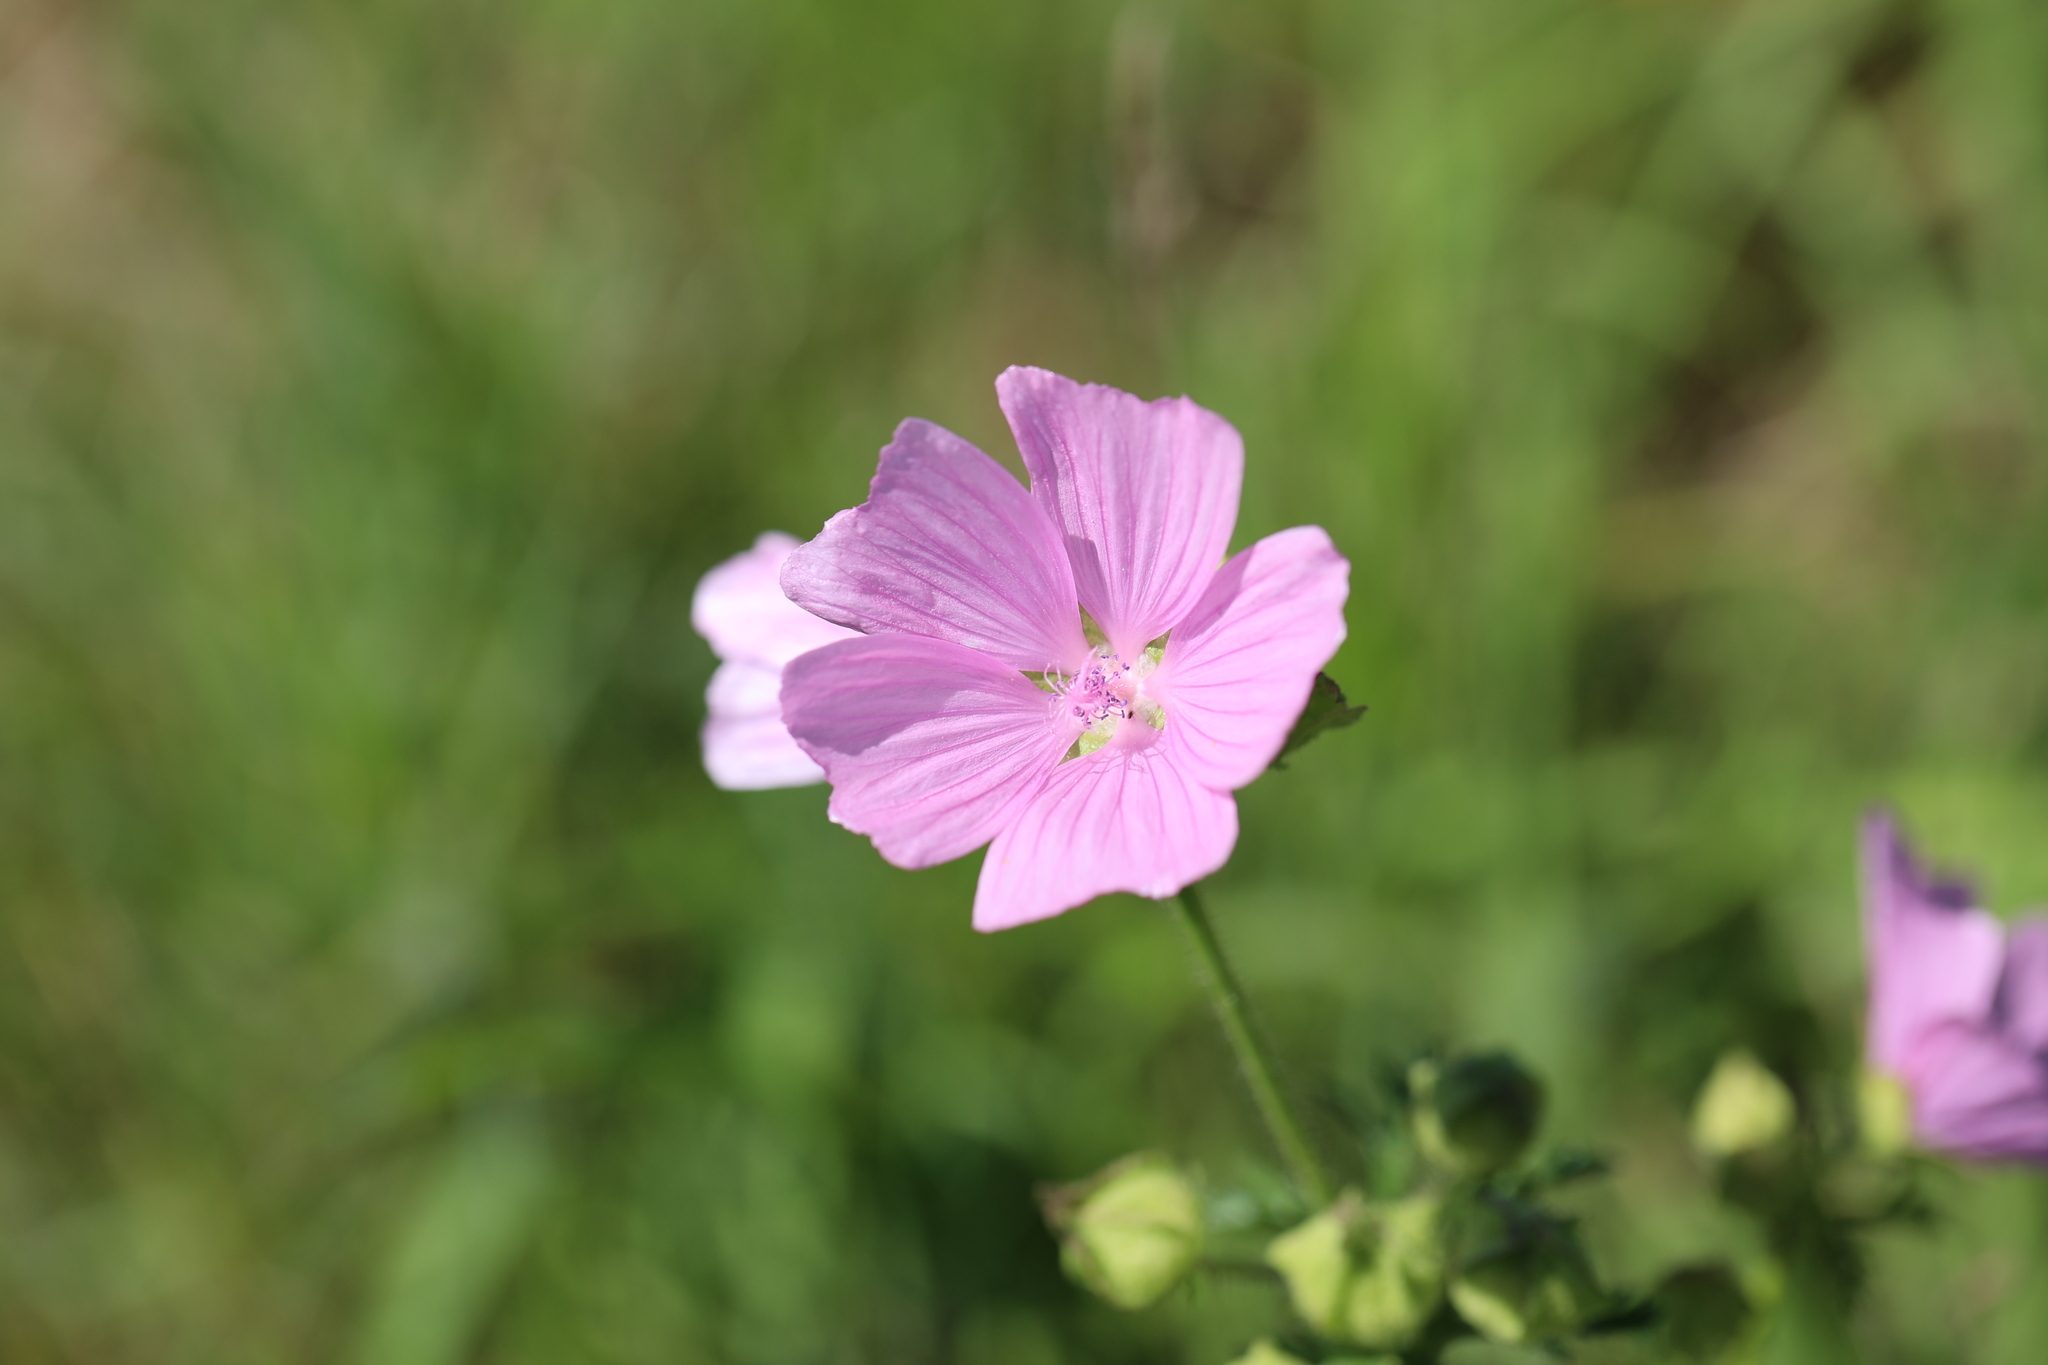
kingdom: Plantae
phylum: Tracheophyta
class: Magnoliopsida
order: Malvales
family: Malvaceae
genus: Malva
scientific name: Malva moschata
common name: Musk mallow
